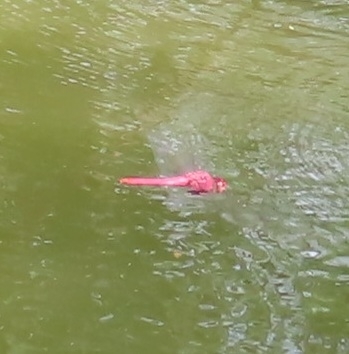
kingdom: Animalia
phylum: Arthropoda
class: Insecta
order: Odonata
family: Libellulidae
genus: Orthemis
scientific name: Orthemis discolor
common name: Carmine skimmer
